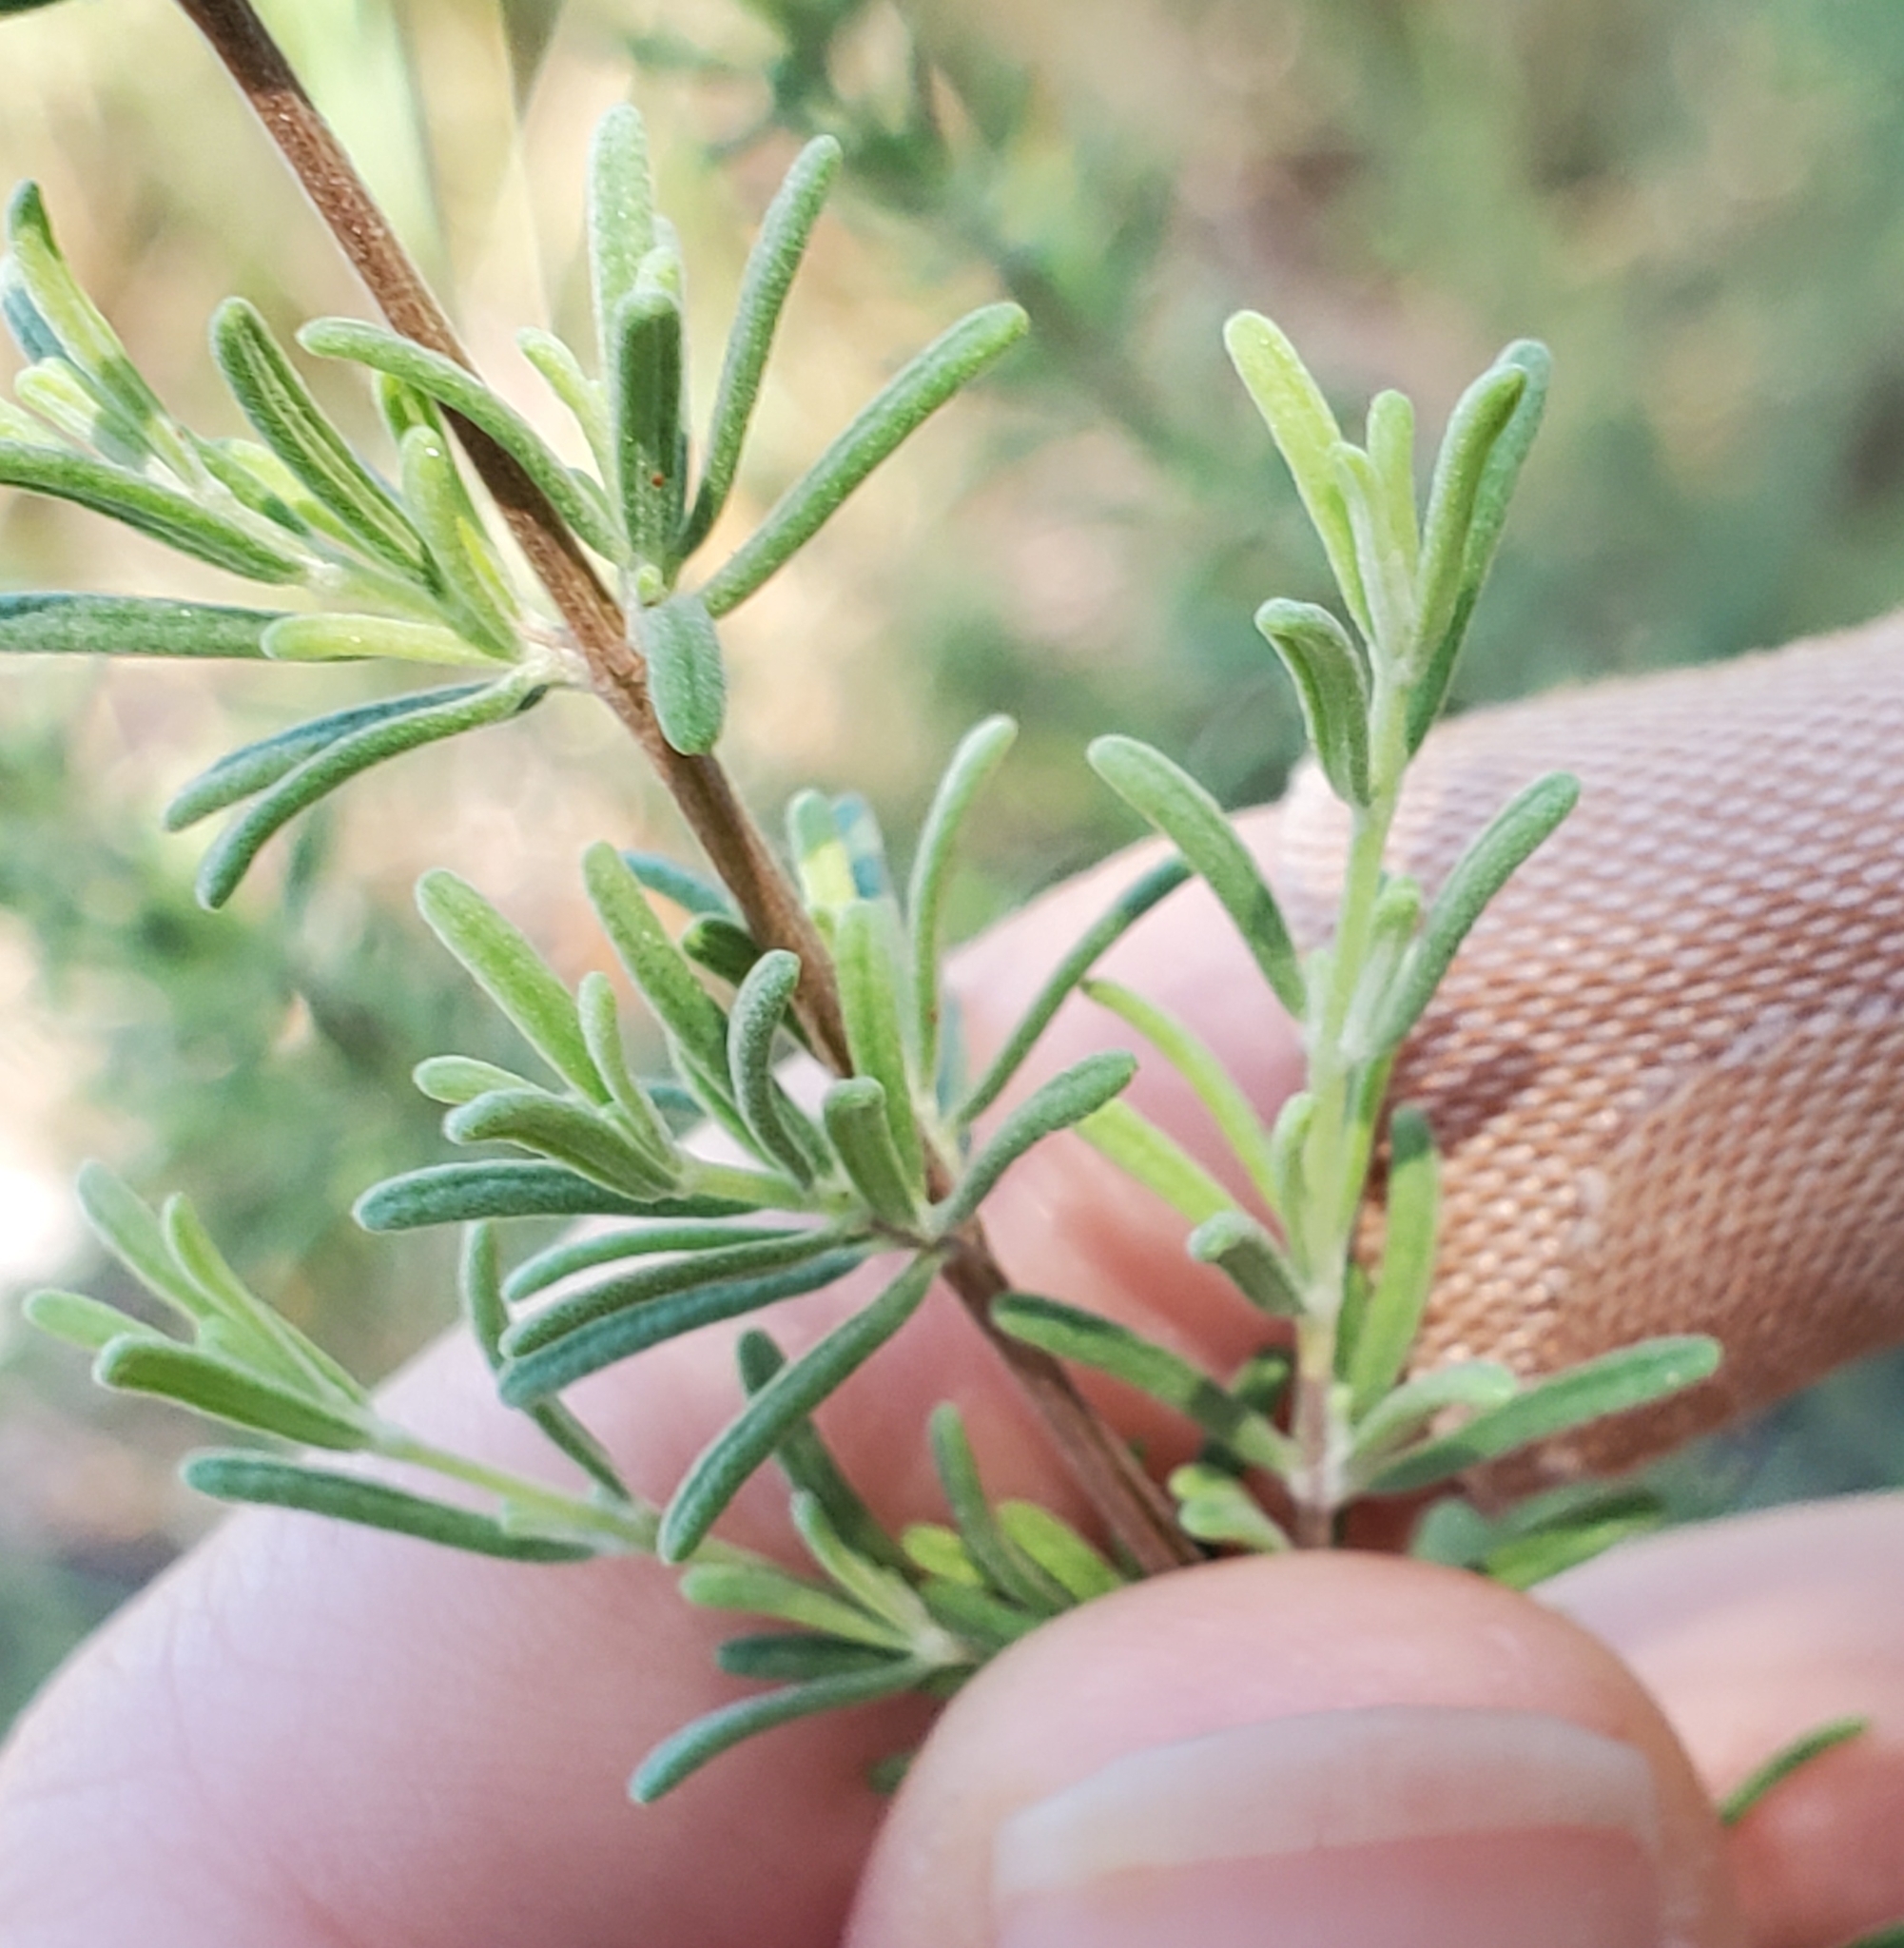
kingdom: Plantae
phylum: Tracheophyta
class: Magnoliopsida
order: Lamiales
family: Lamiaceae
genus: Conradina
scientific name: Conradina canescens
